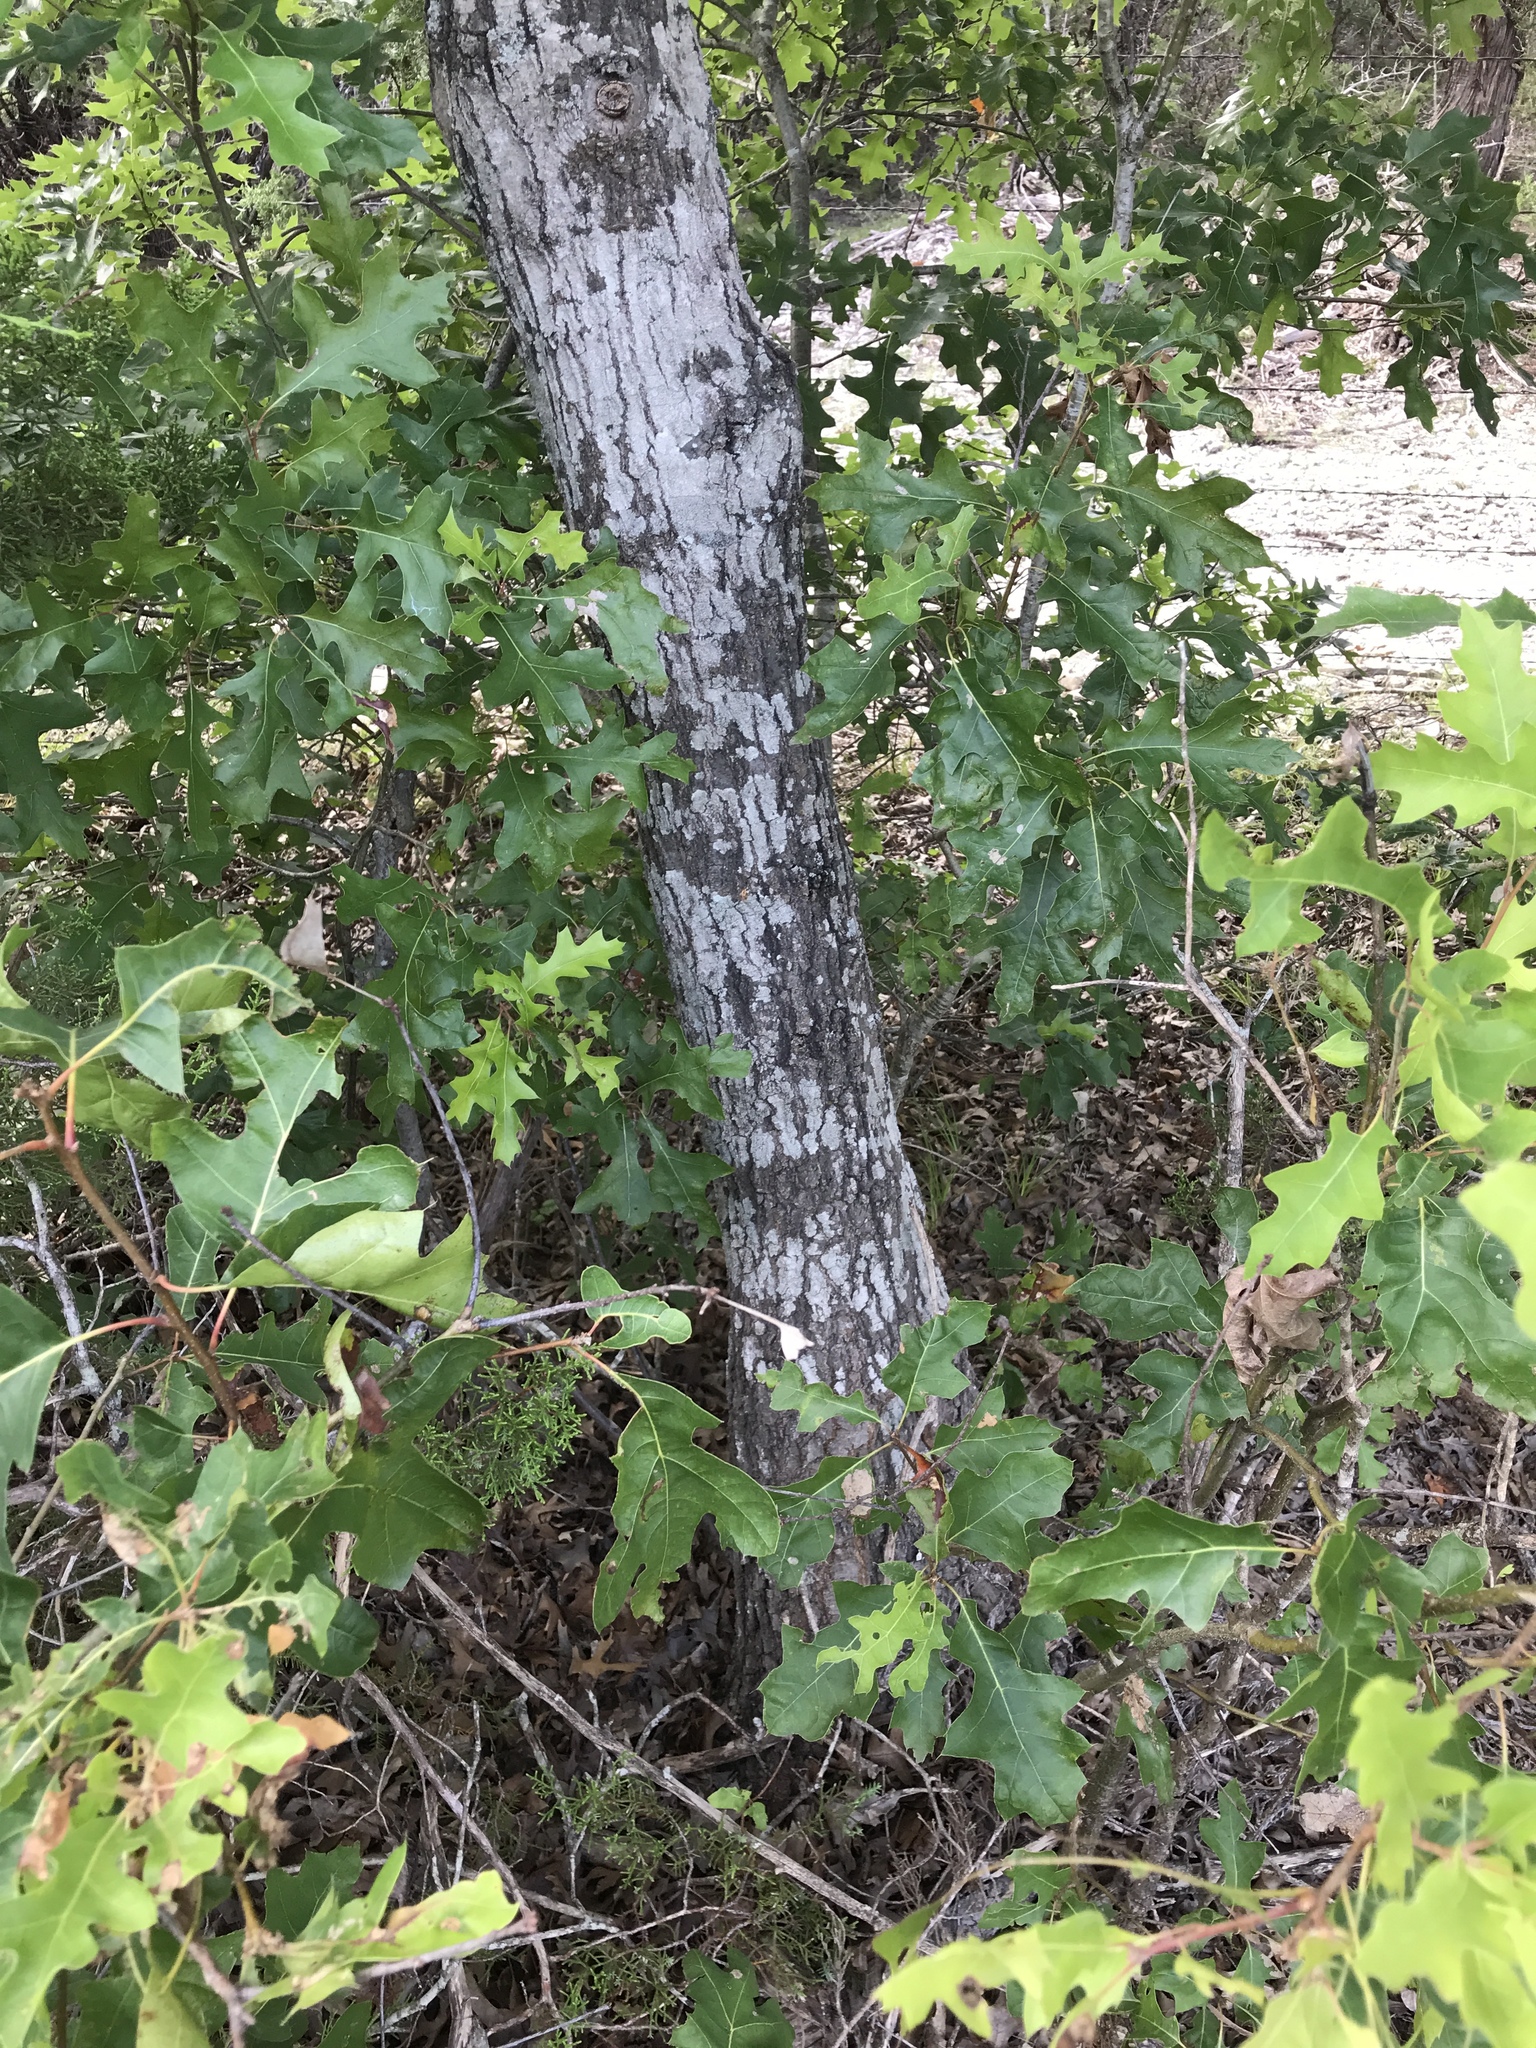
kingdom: Plantae
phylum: Tracheophyta
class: Magnoliopsida
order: Fagales
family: Fagaceae
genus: Quercus
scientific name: Quercus buckleyi
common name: Buckley oak
